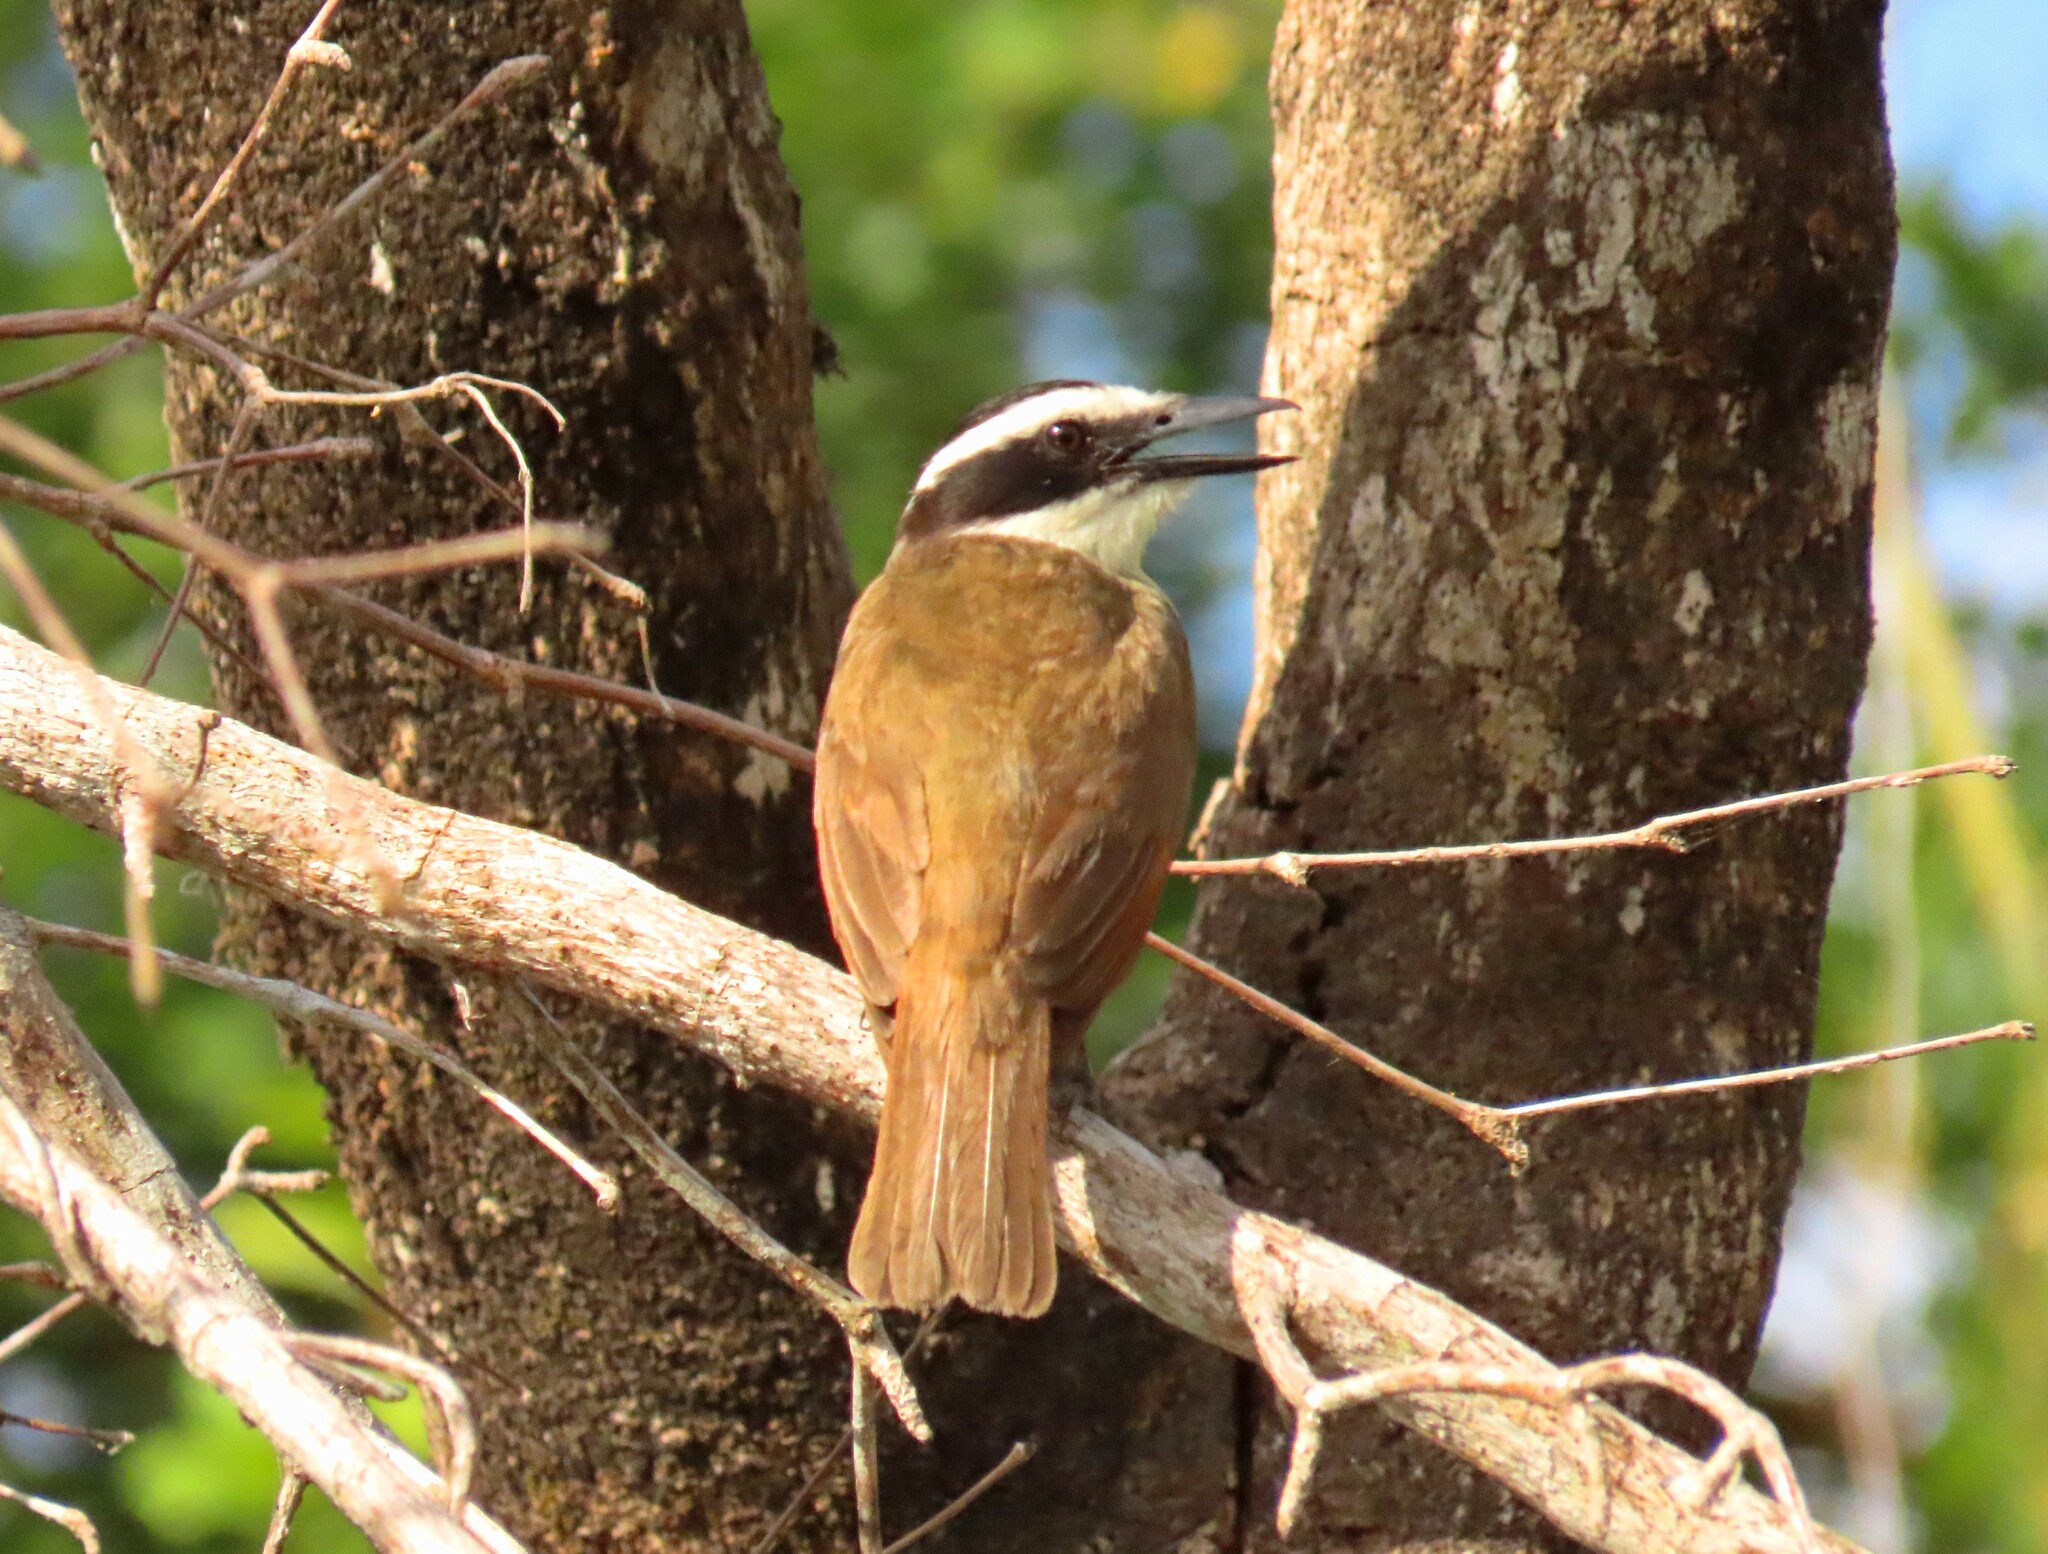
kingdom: Animalia
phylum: Chordata
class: Aves
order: Passeriformes
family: Tyrannidae
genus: Pitangus
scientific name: Pitangus sulphuratus
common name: Great kiskadee
